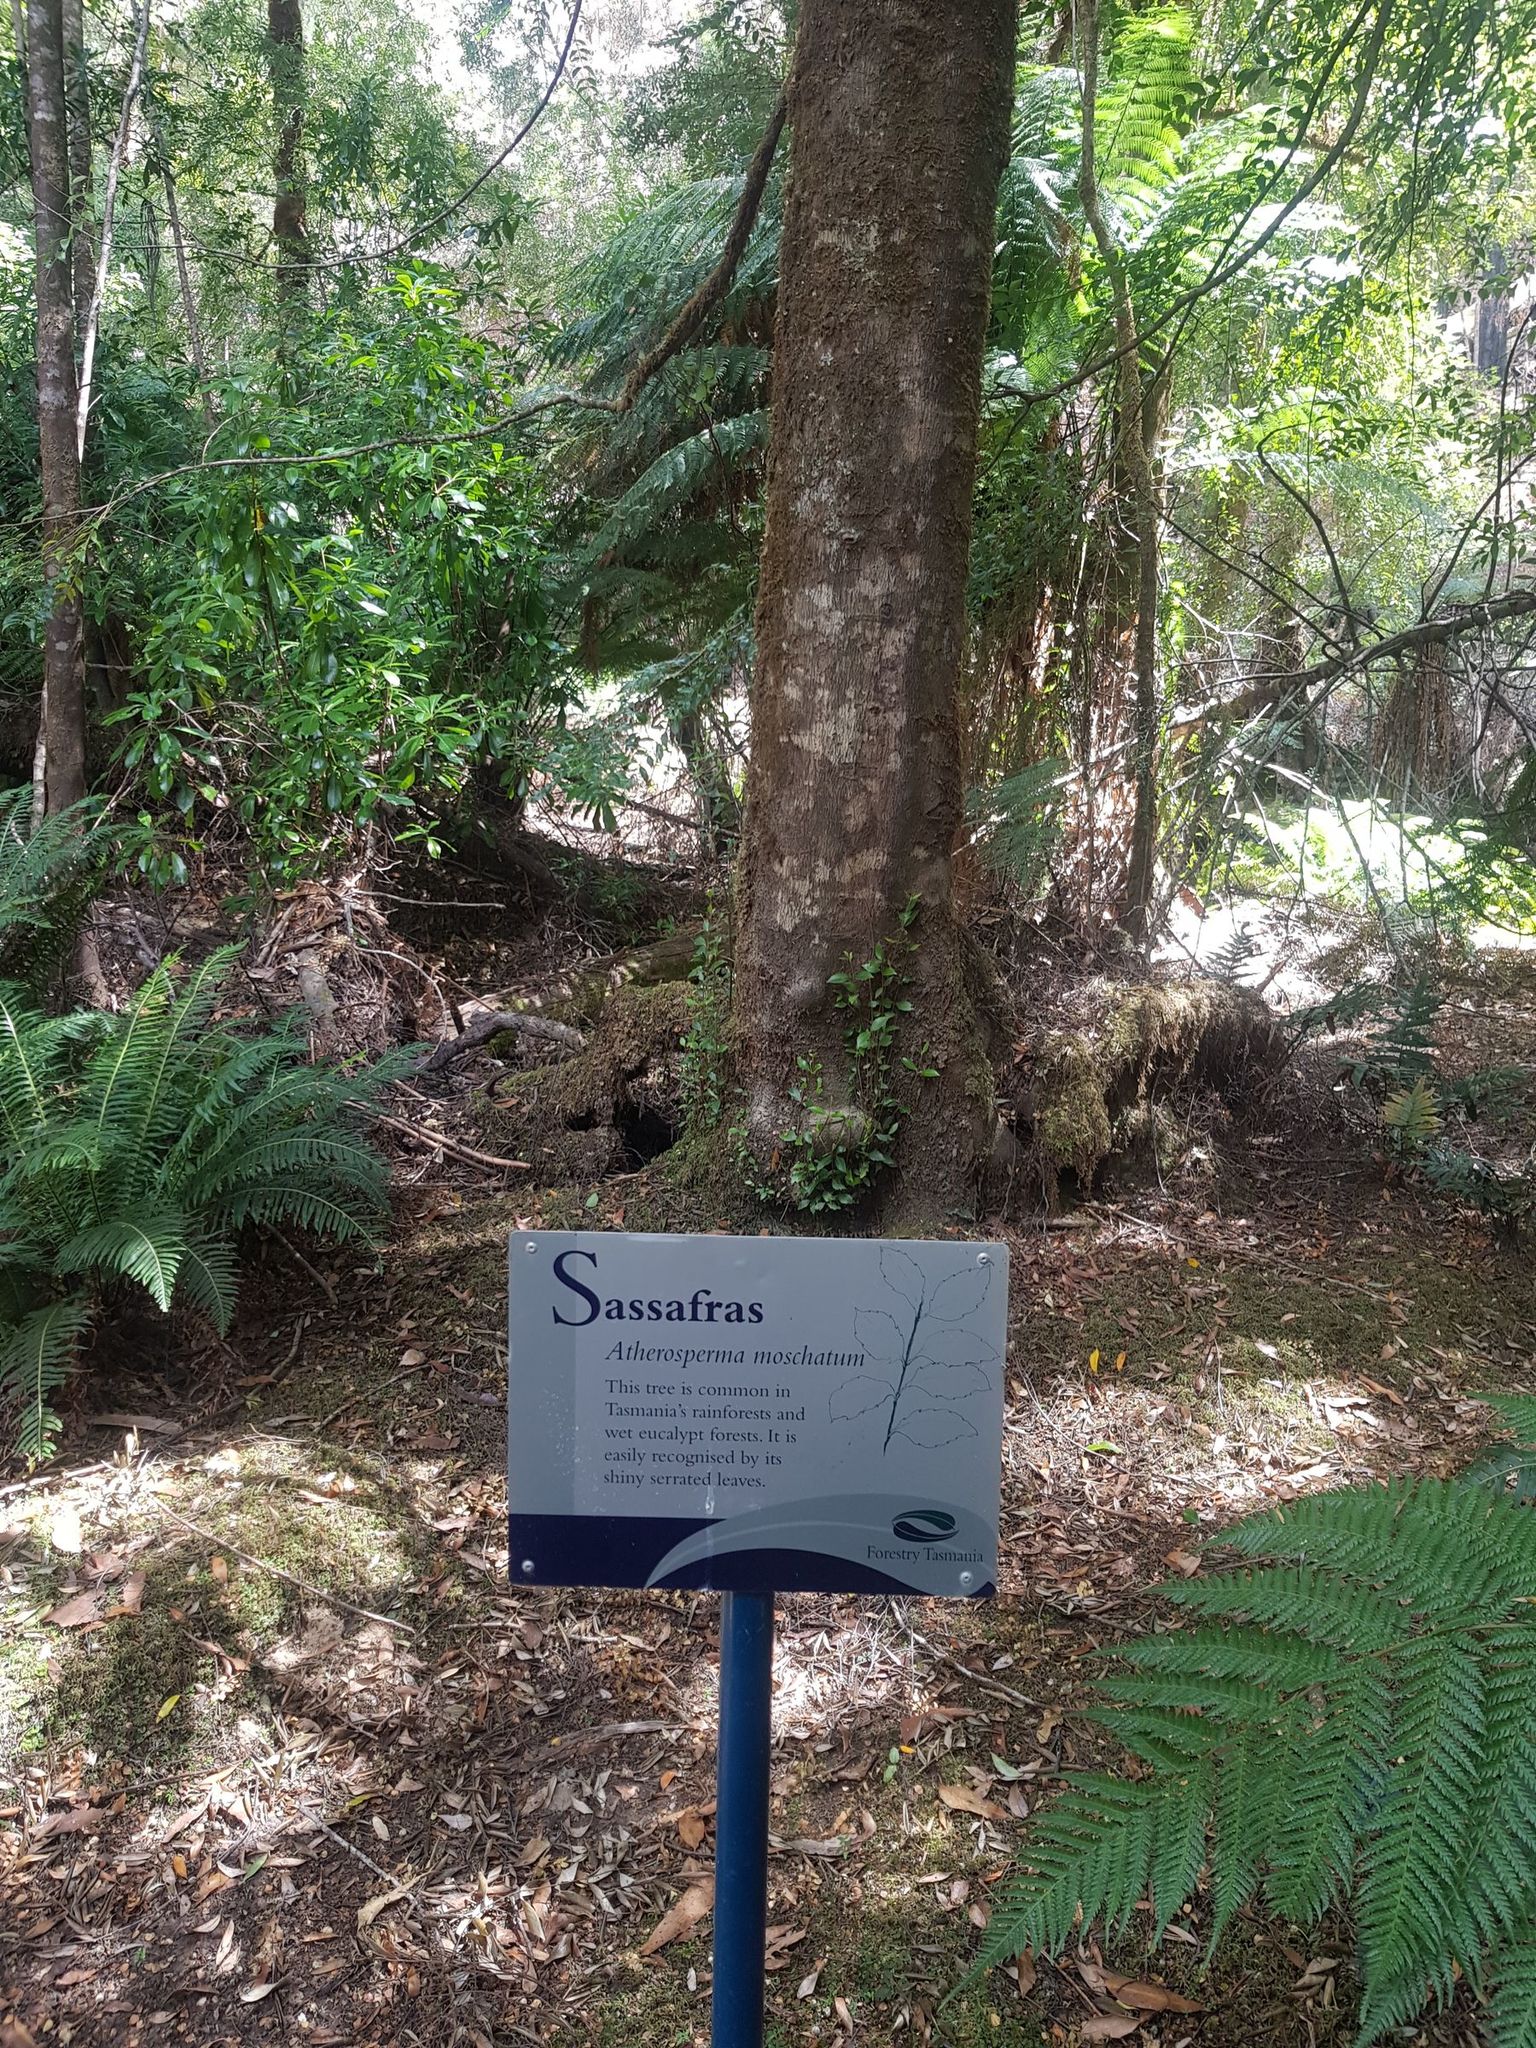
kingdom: Plantae
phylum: Tracheophyta
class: Magnoliopsida
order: Laurales
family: Atherospermataceae
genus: Atherosperma
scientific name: Atherosperma moschatum
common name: Tasmanian-sassafras
